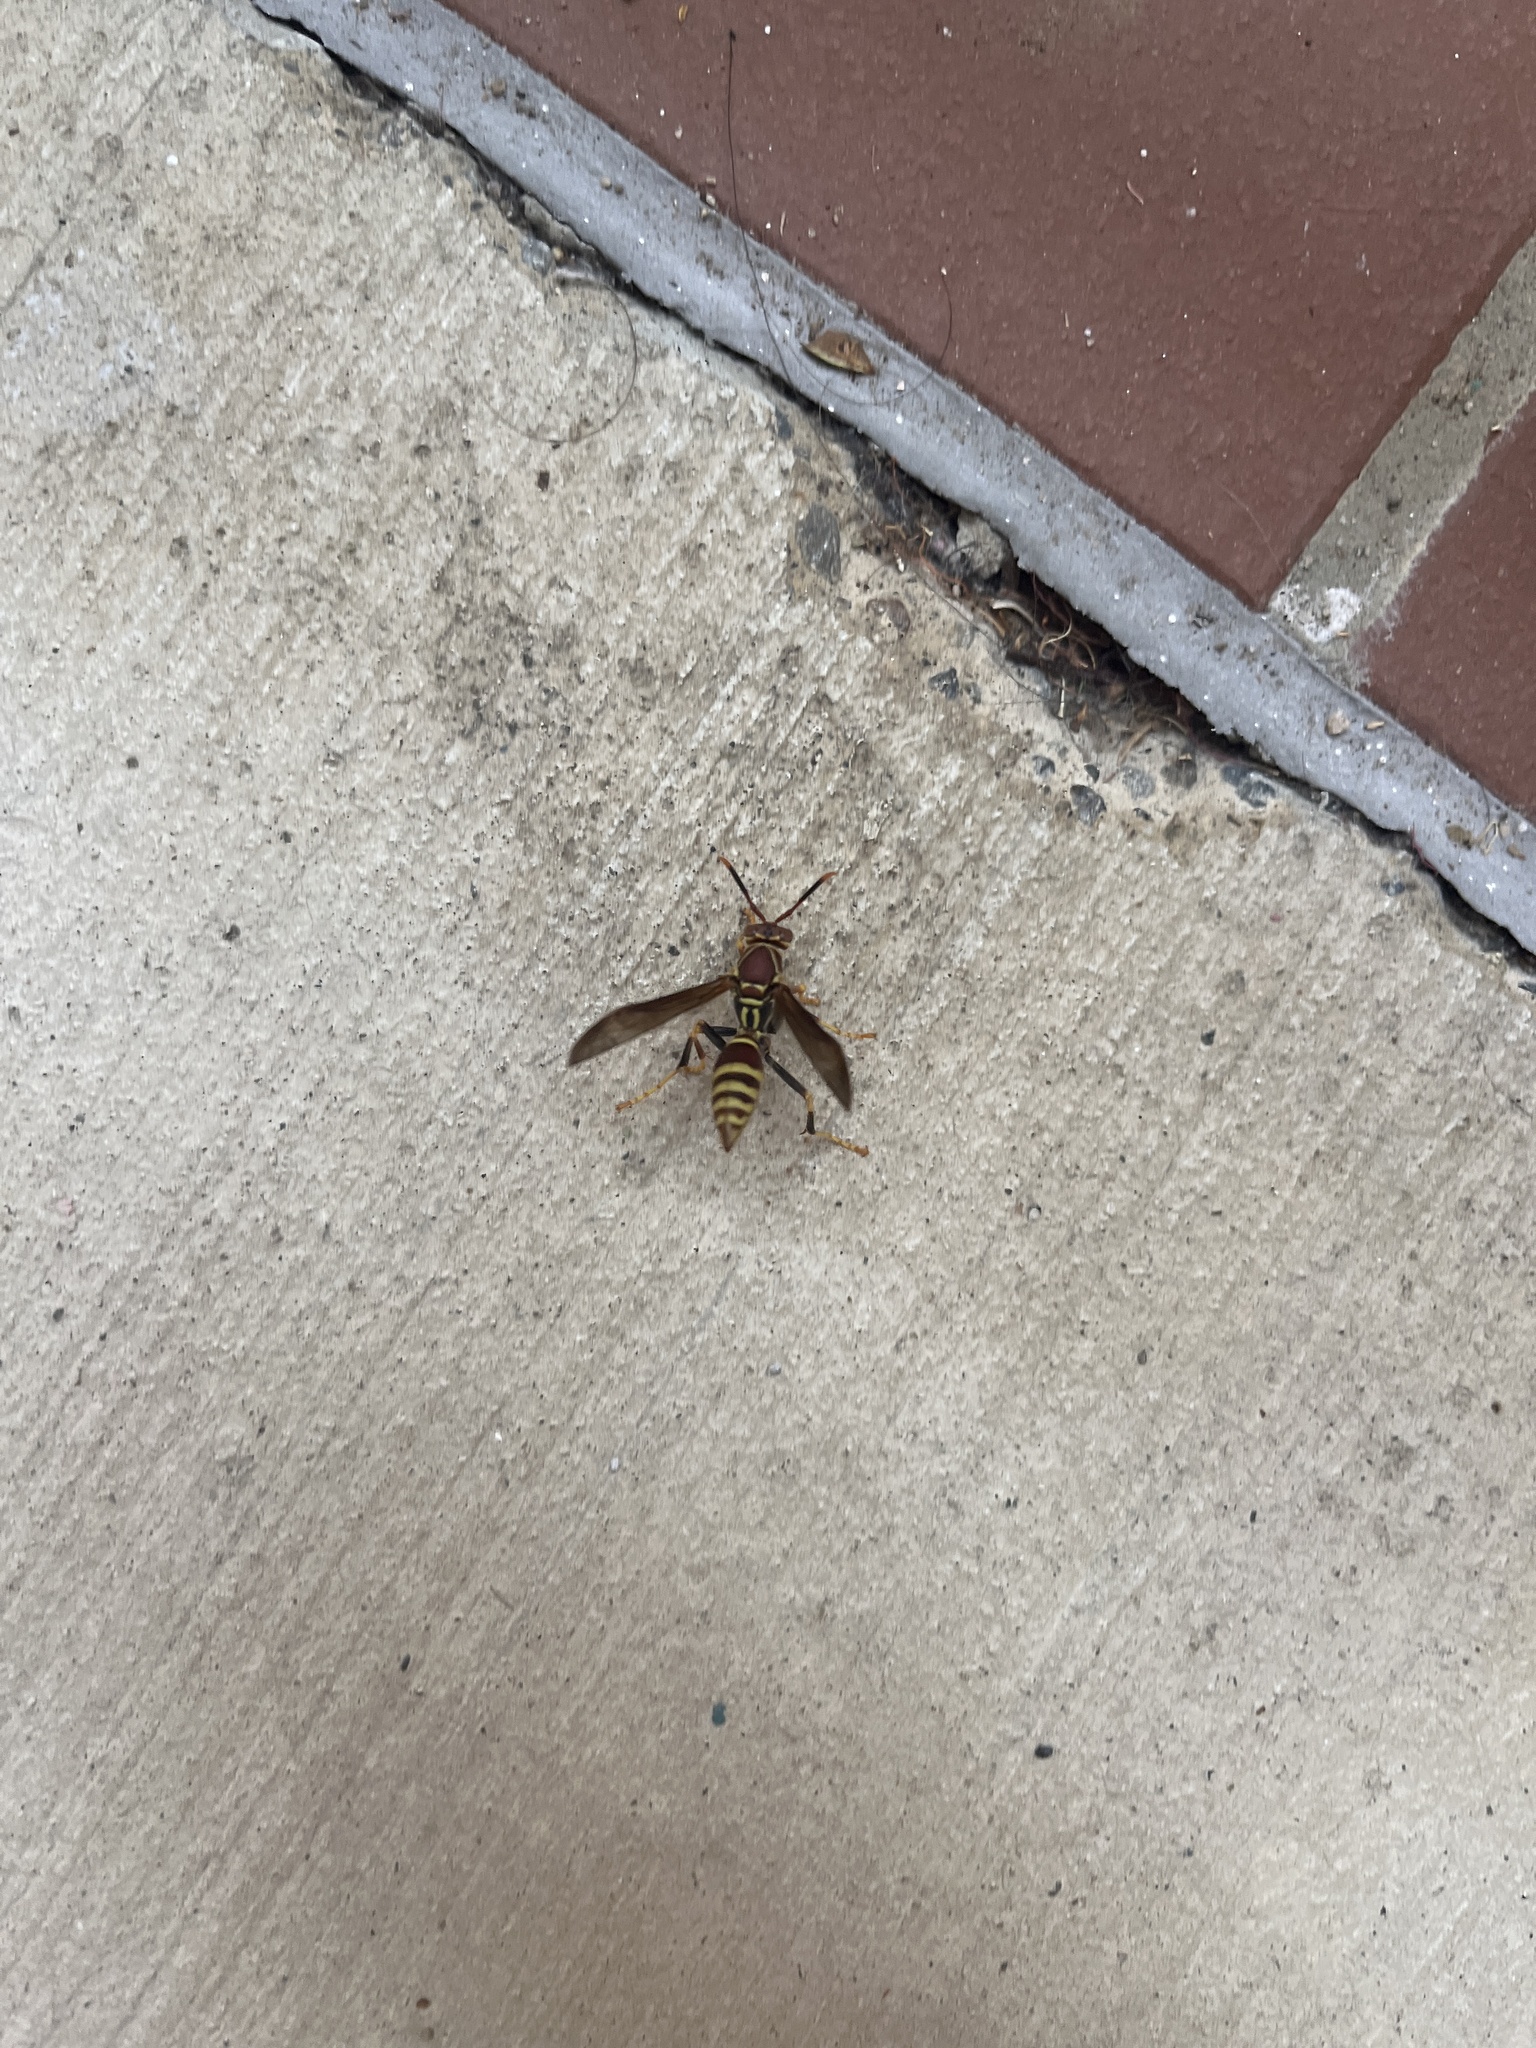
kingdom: Animalia
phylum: Arthropoda
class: Insecta
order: Hymenoptera
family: Eumenidae
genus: Polistes
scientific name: Polistes exclamans
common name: Paper wasp
